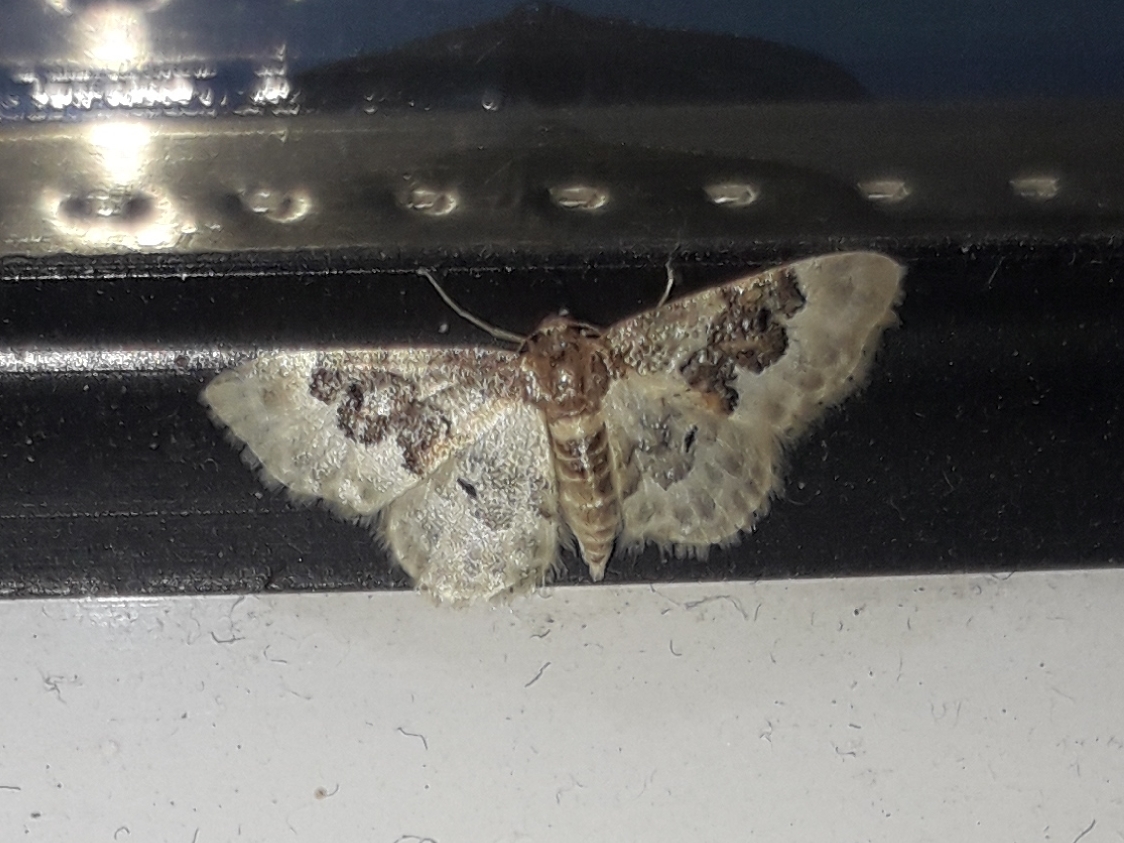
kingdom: Animalia
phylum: Arthropoda
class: Insecta
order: Lepidoptera
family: Geometridae
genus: Idaea
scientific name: Idaea rusticata
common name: Least carpet
